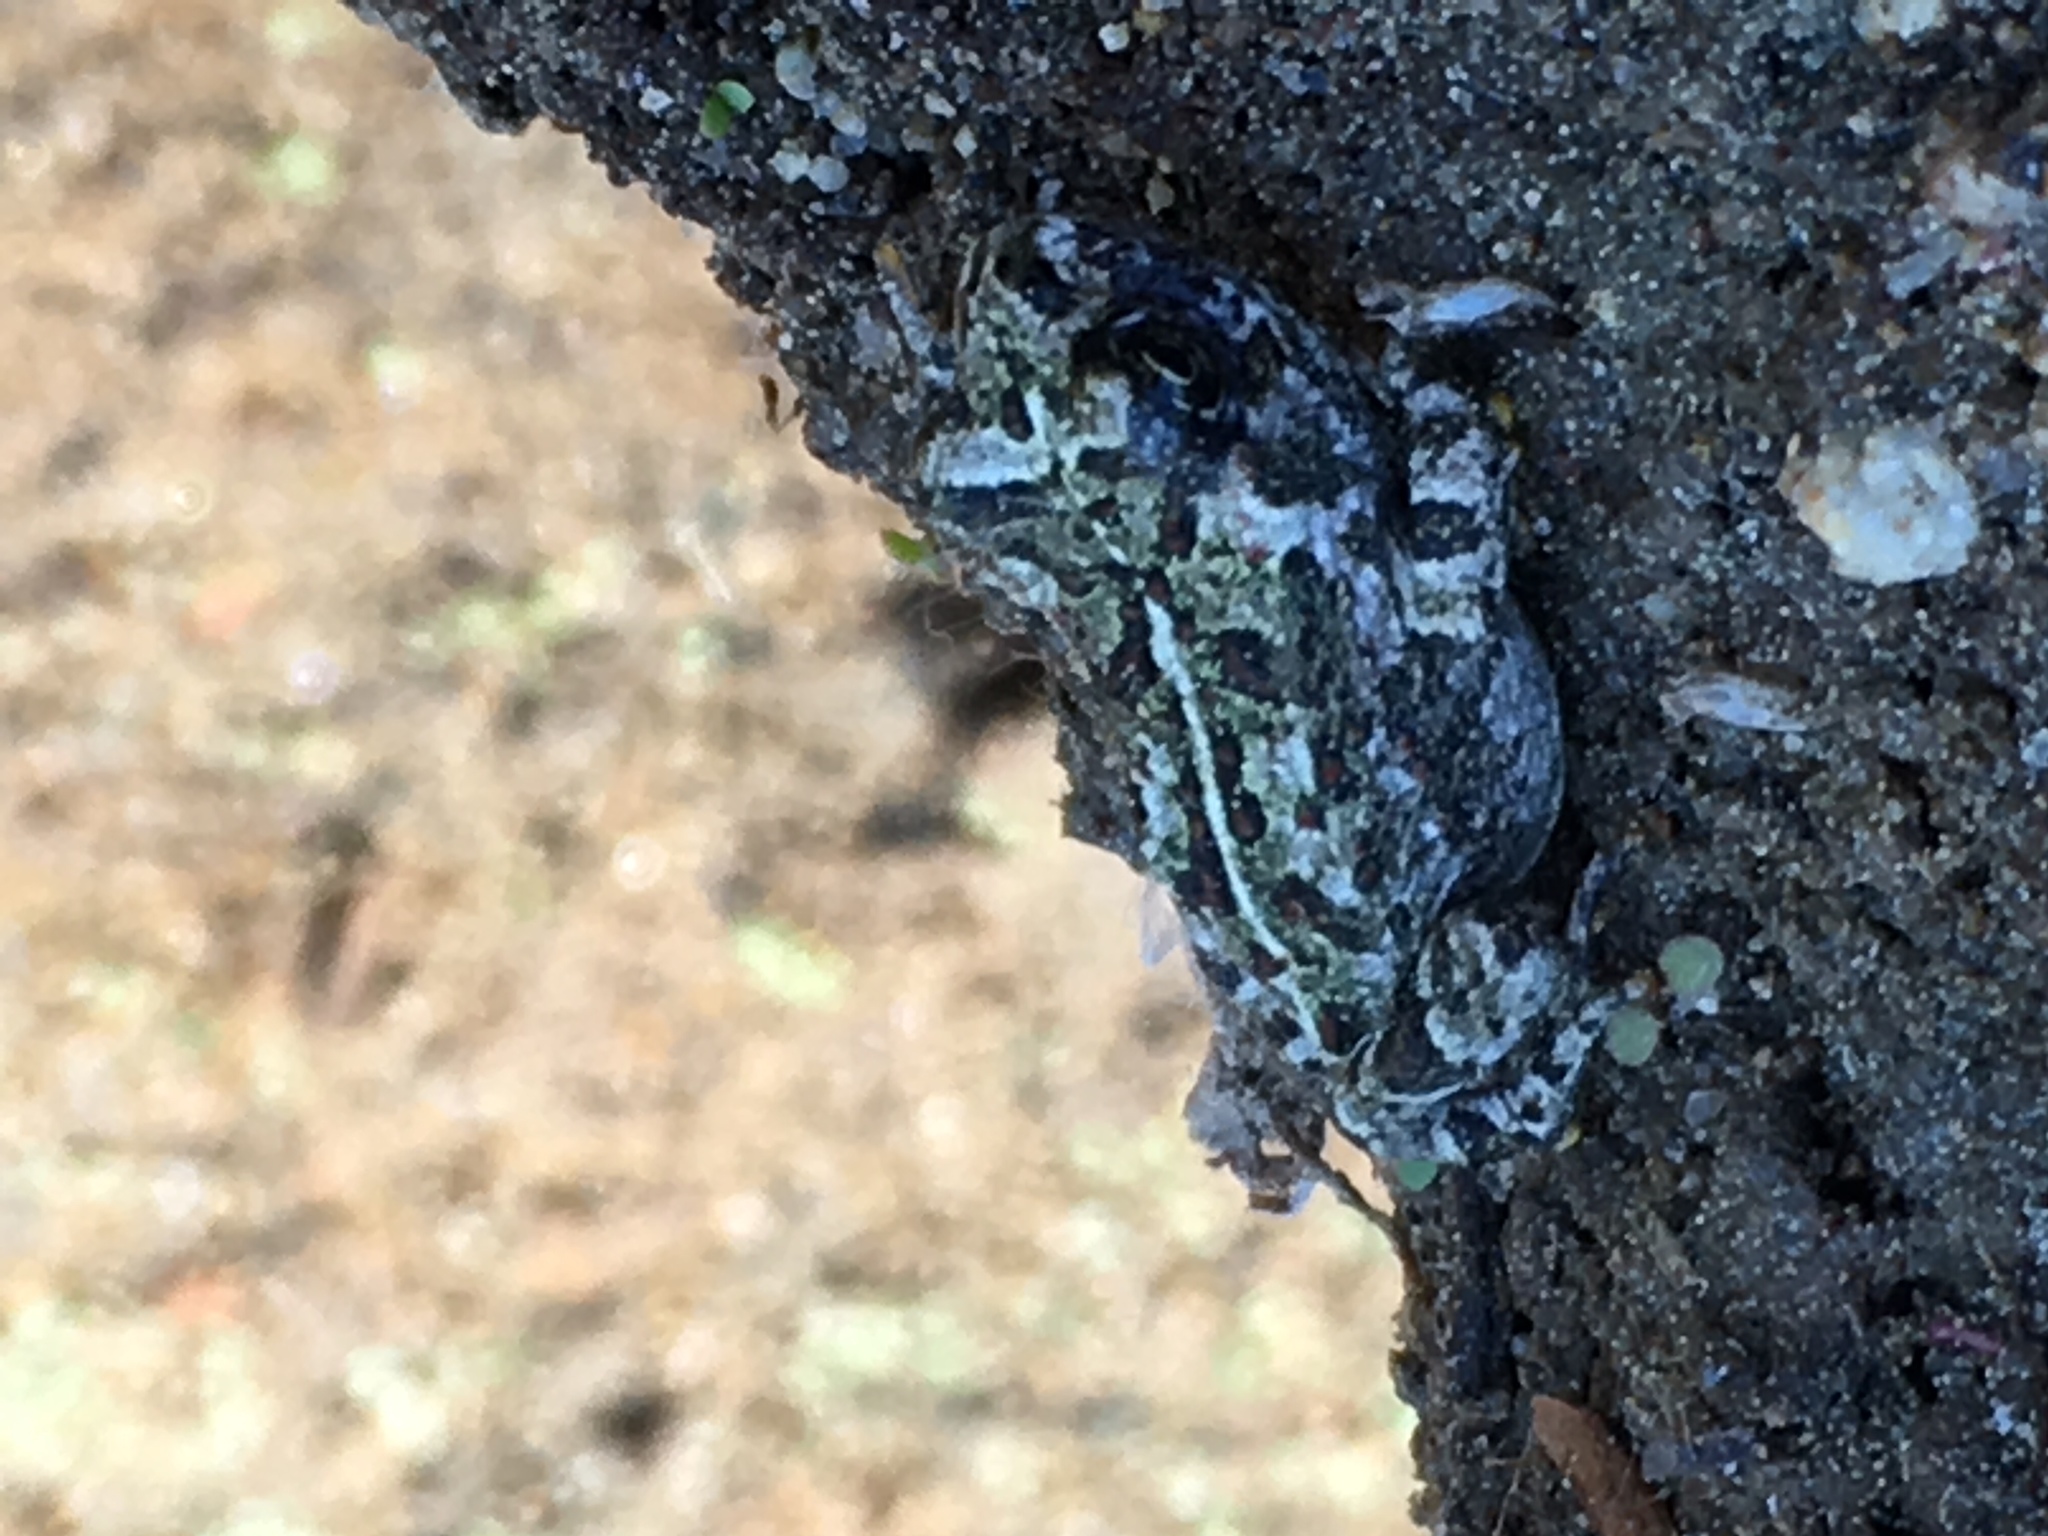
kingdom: Animalia
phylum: Chordata
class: Amphibia
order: Anura
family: Bufonidae
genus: Anaxyrus
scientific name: Anaxyrus boreas
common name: Western toad
